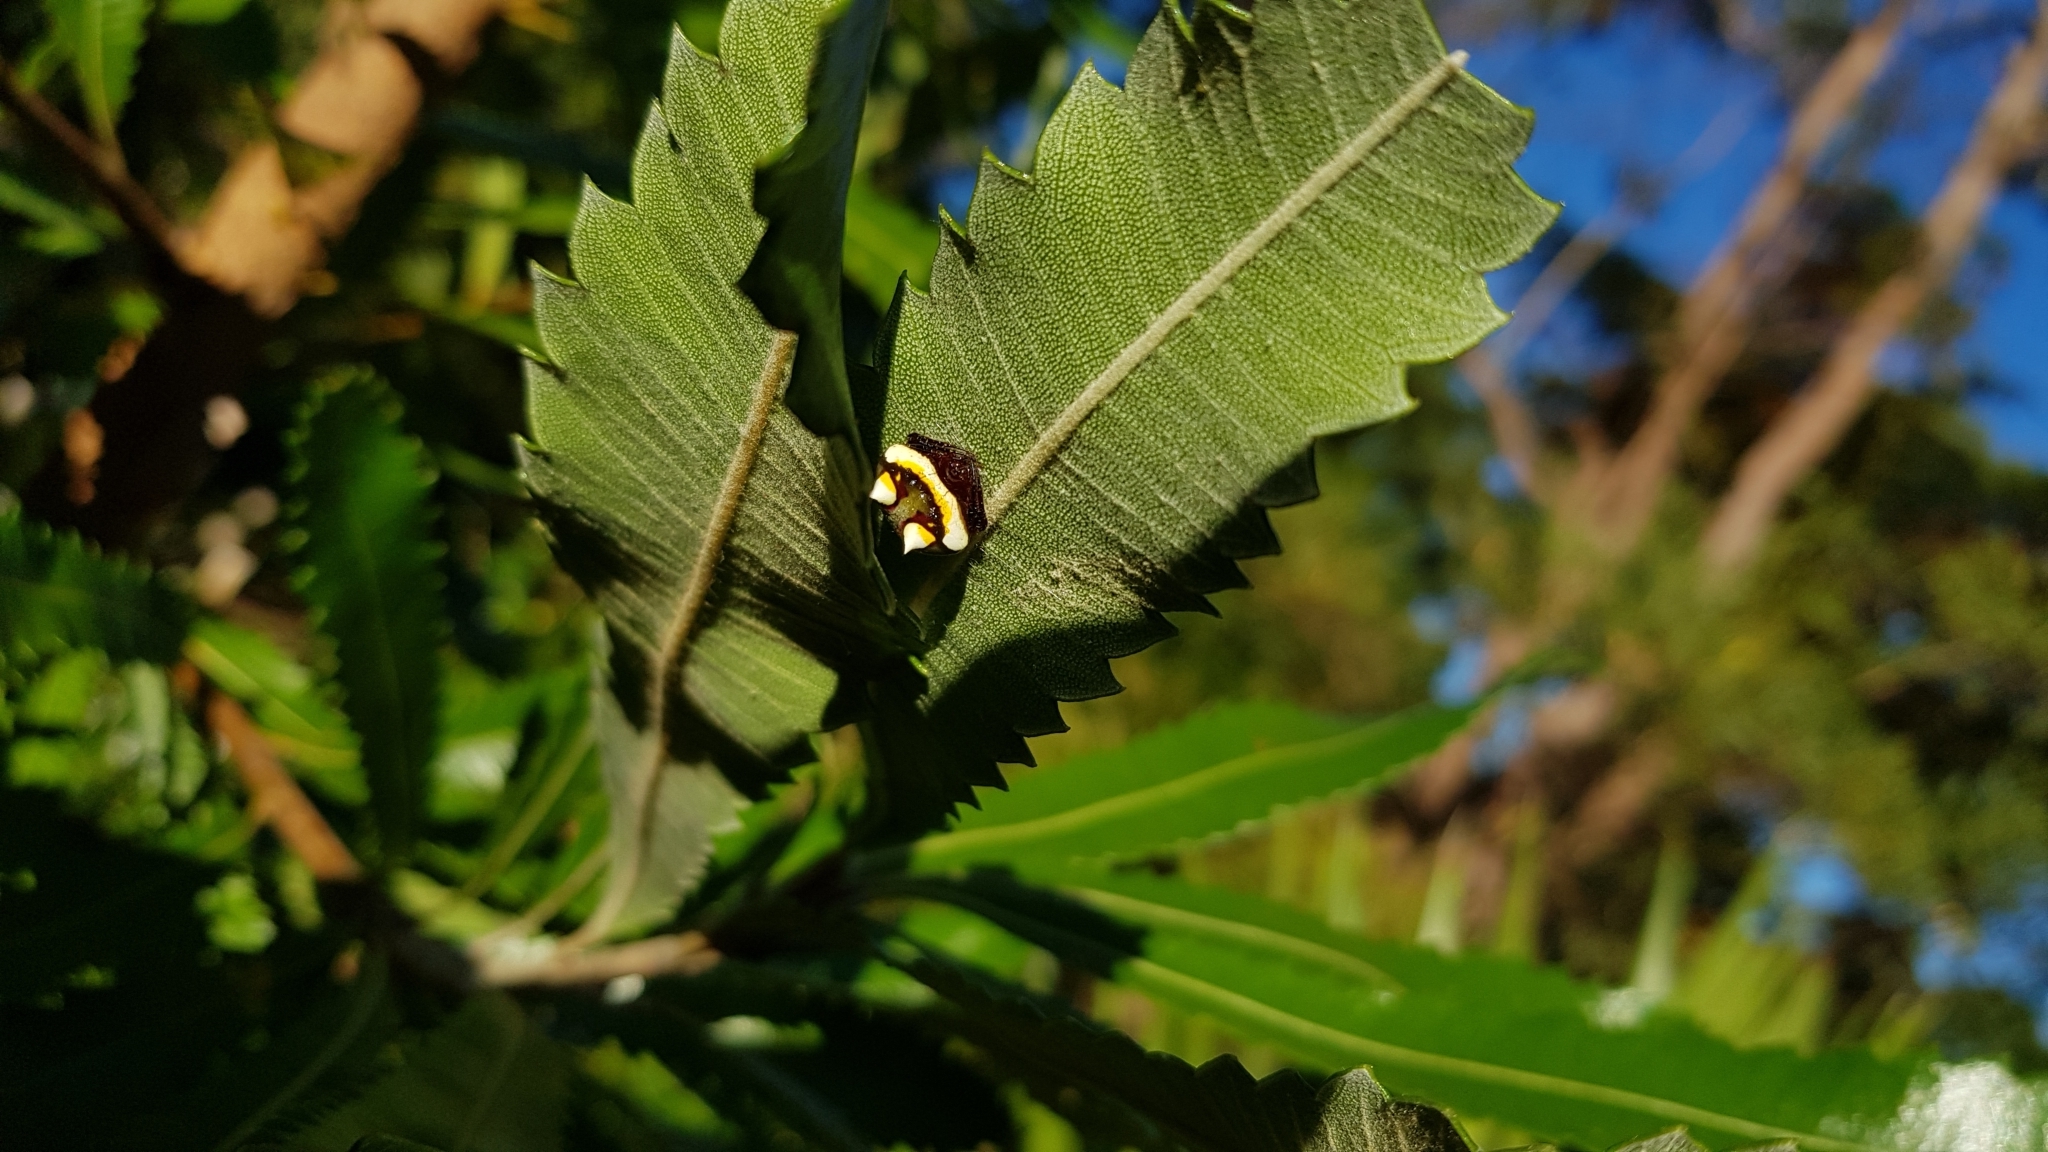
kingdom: Animalia
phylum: Arthropoda
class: Arachnida
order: Araneae
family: Araneidae
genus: Poecilopachys
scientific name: Poecilopachys australasia
